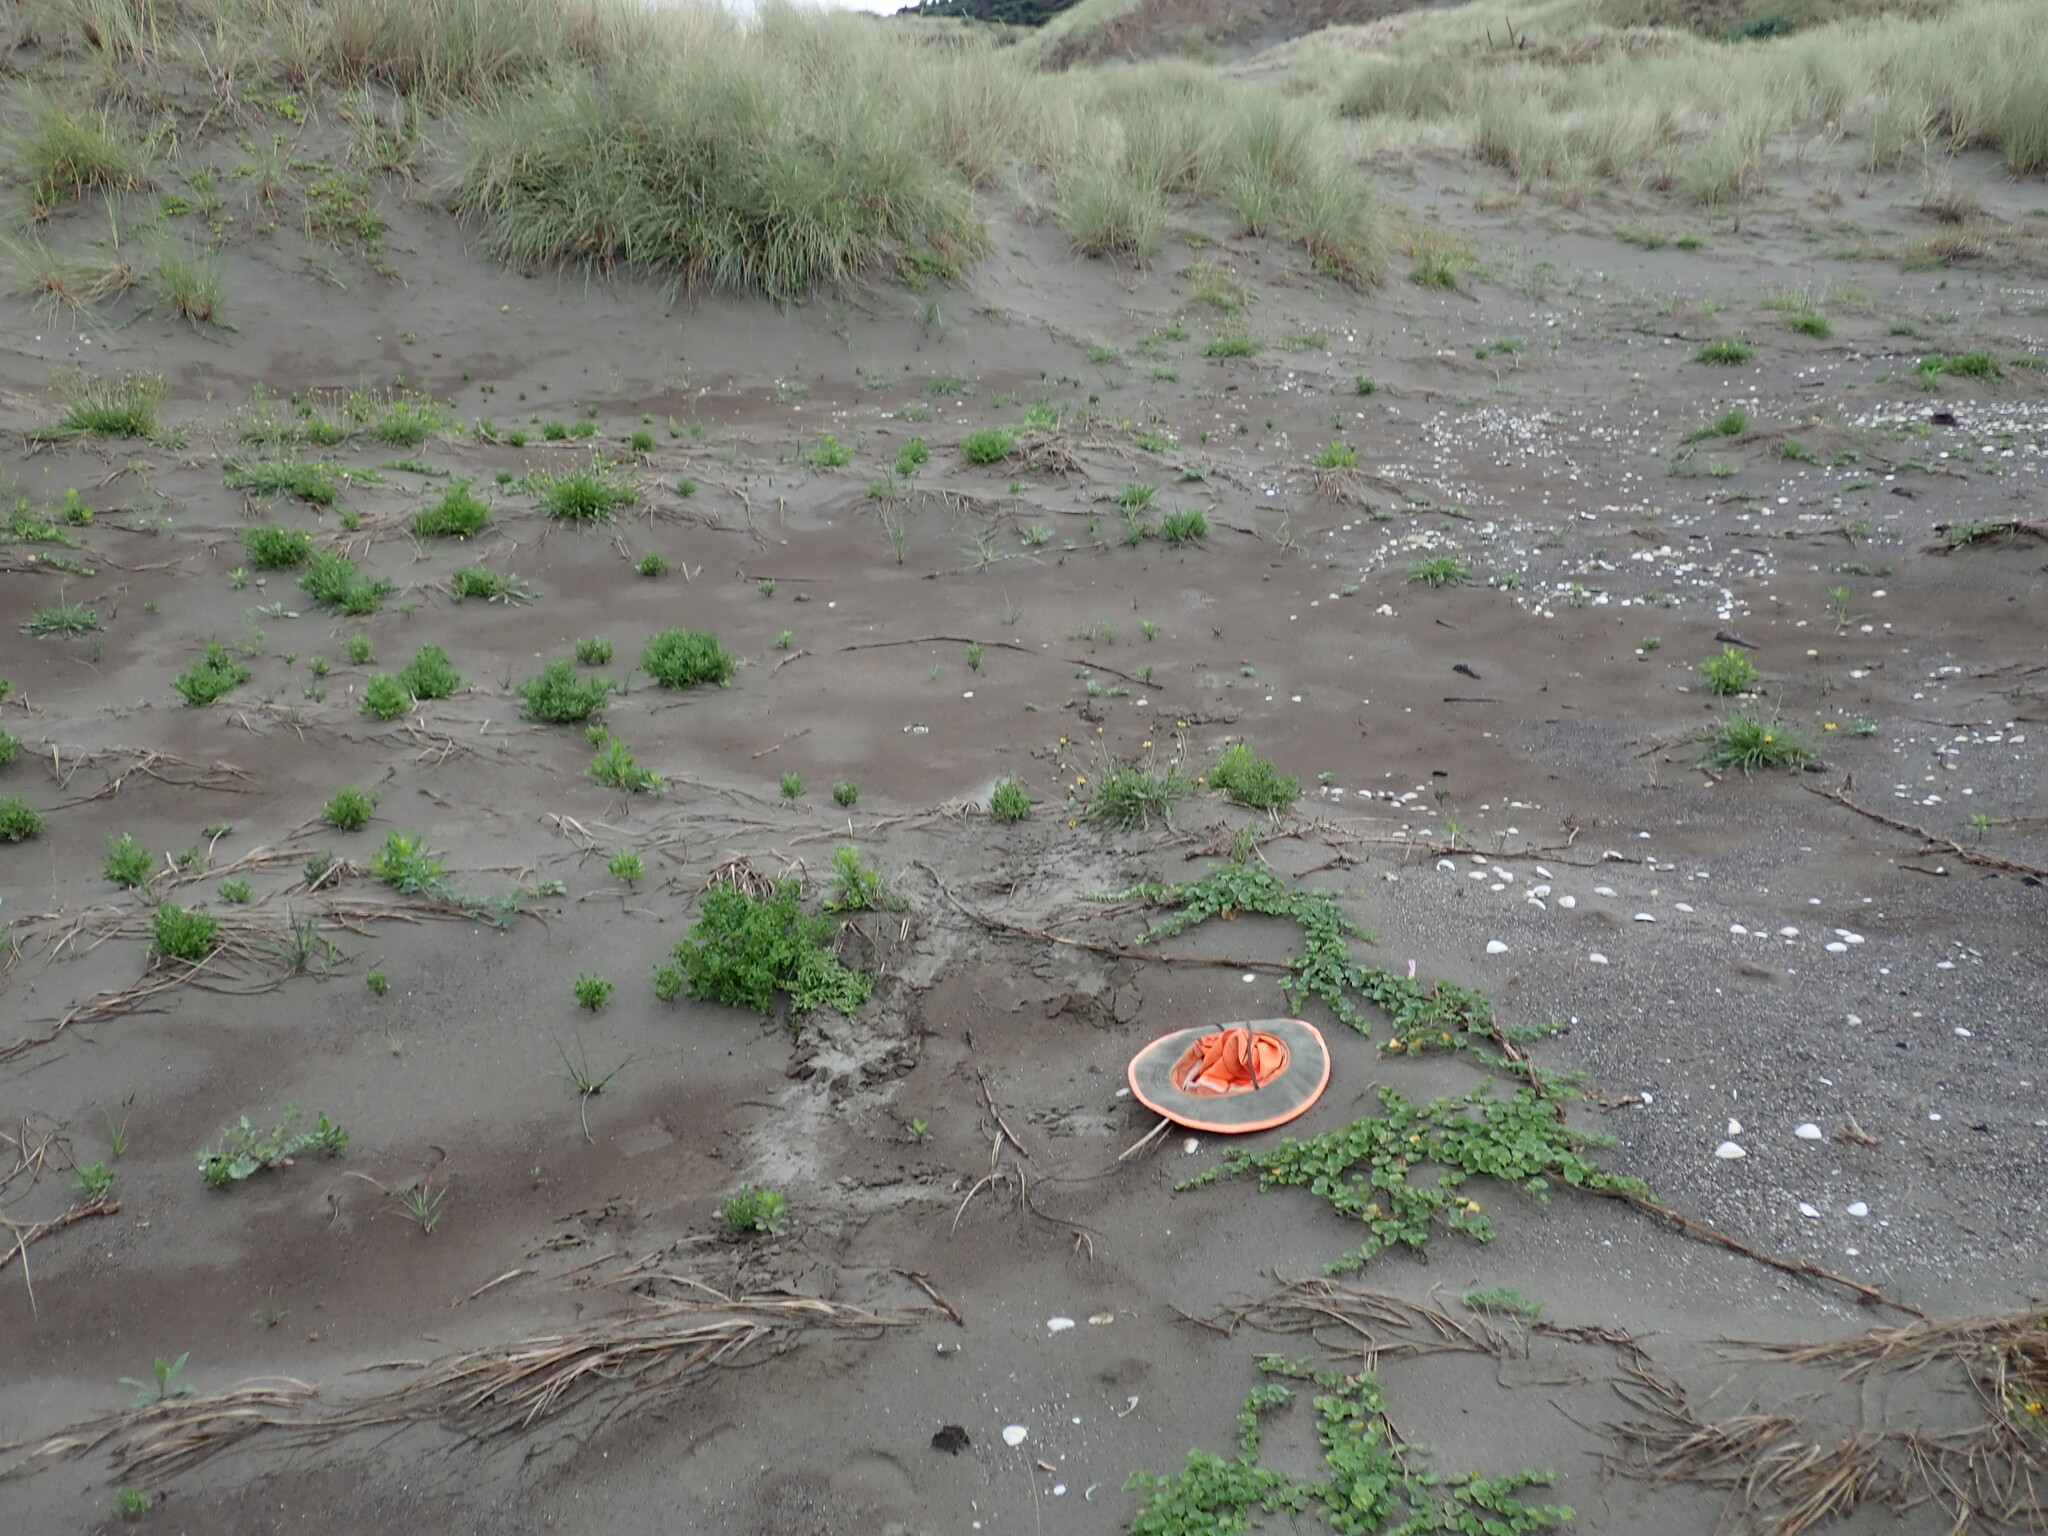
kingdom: Plantae
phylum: Tracheophyta
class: Magnoliopsida
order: Solanales
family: Convolvulaceae
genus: Calystegia
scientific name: Calystegia soldanella
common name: Sea bindweed
